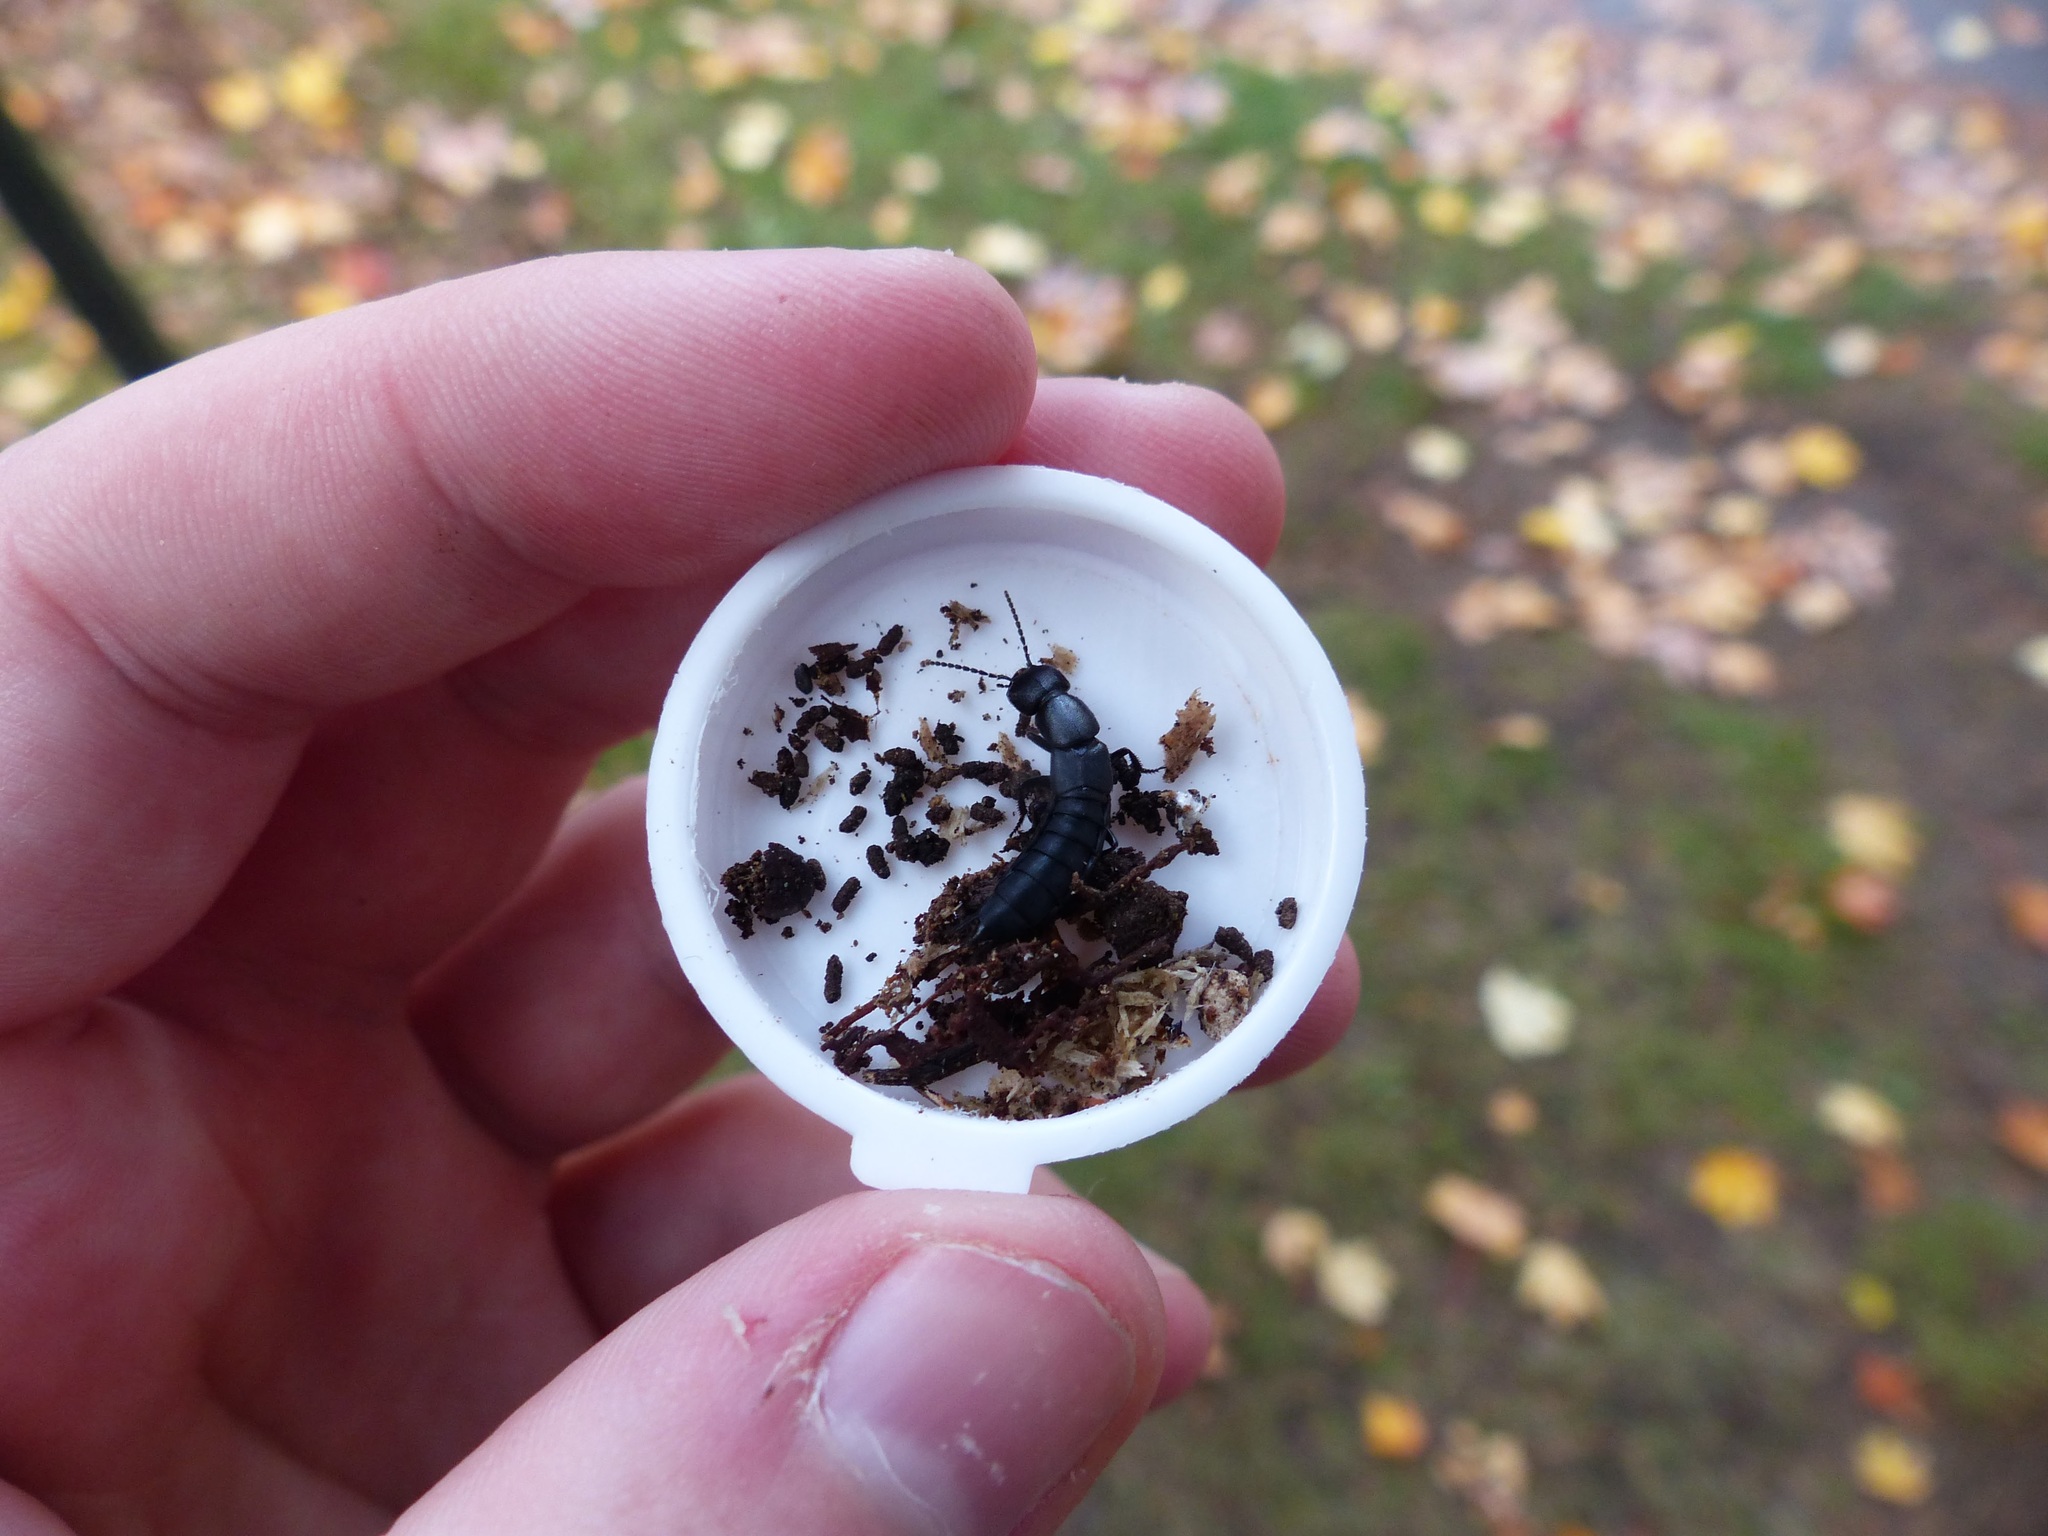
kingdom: Animalia
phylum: Arthropoda
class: Insecta
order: Coleoptera
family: Staphylinidae
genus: Ocypus
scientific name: Ocypus nitens
